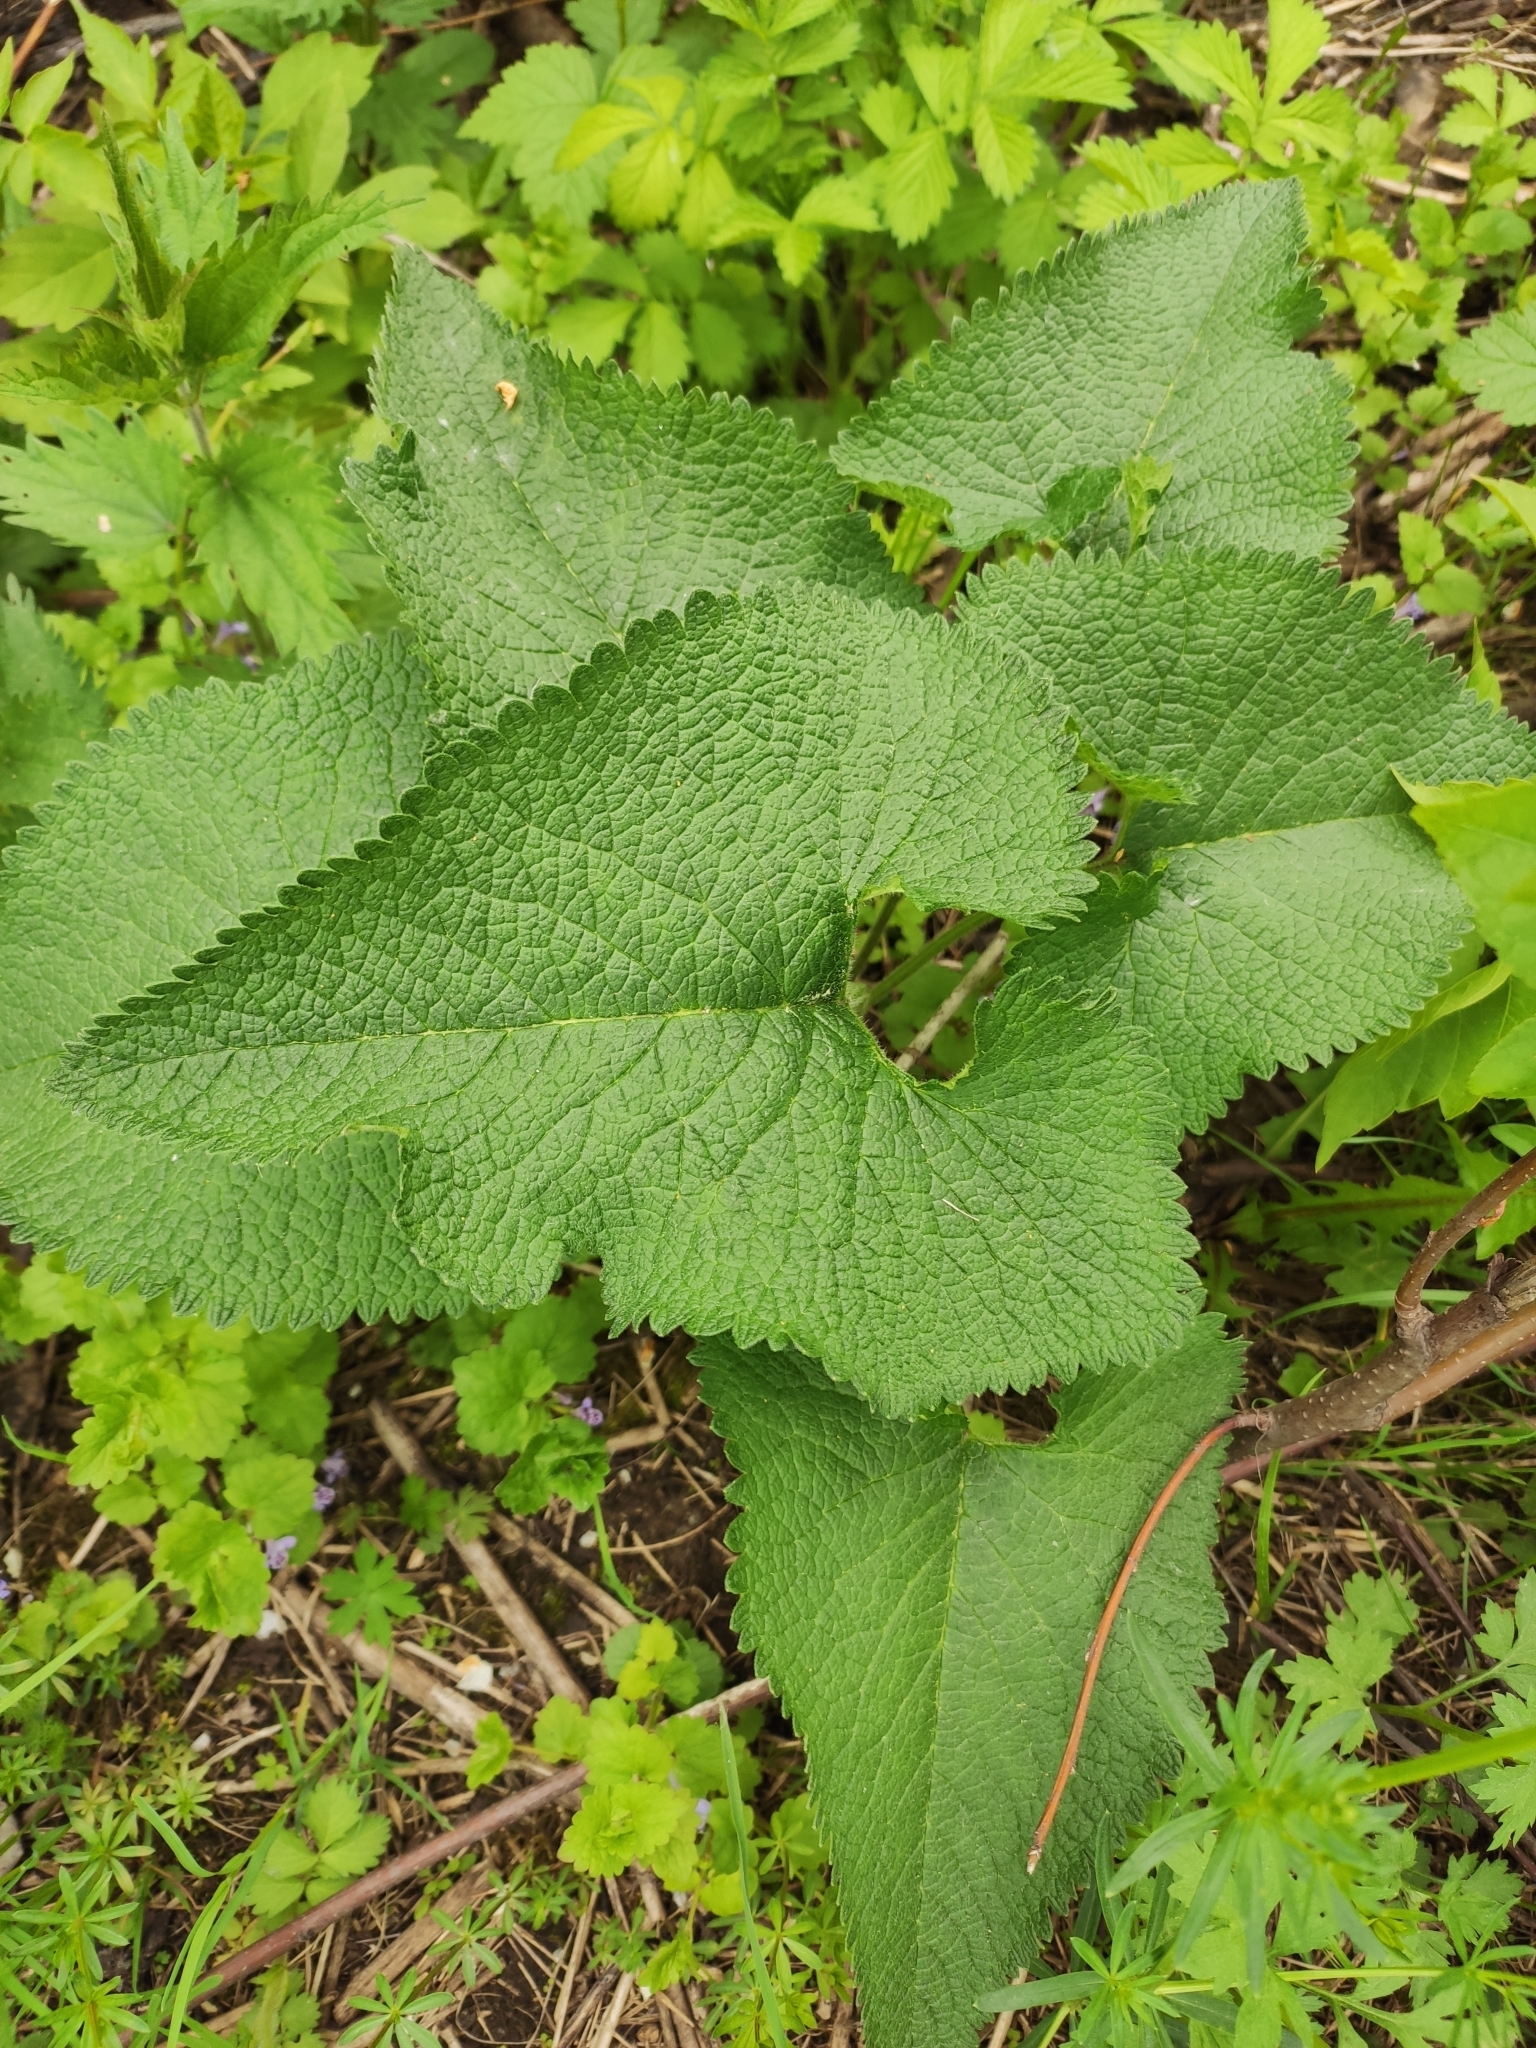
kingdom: Plantae
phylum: Tracheophyta
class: Magnoliopsida
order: Lamiales
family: Lamiaceae
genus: Phlomoides
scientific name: Phlomoides tuberosa
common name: Tuberous jerusalem sage
